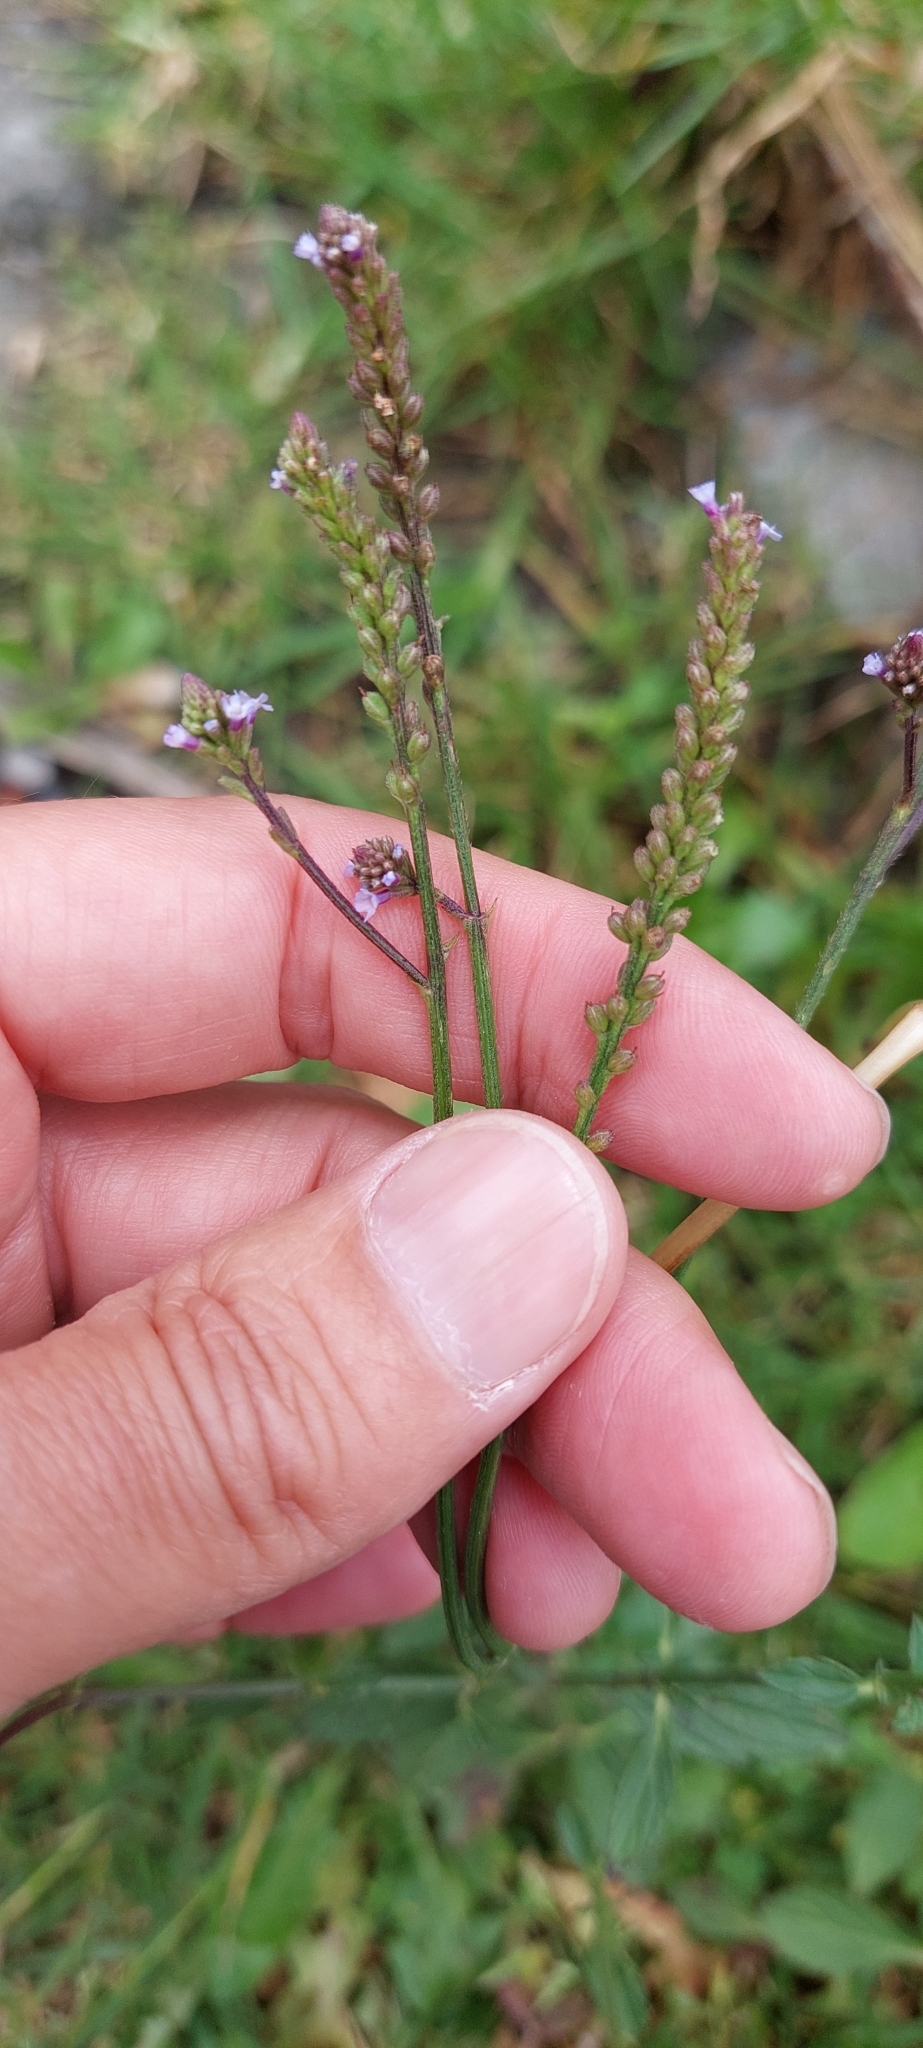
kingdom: Plantae
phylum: Tracheophyta
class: Magnoliopsida
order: Lamiales
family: Verbenaceae
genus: Verbena
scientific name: Verbena litoralis
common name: Seashore vervain
